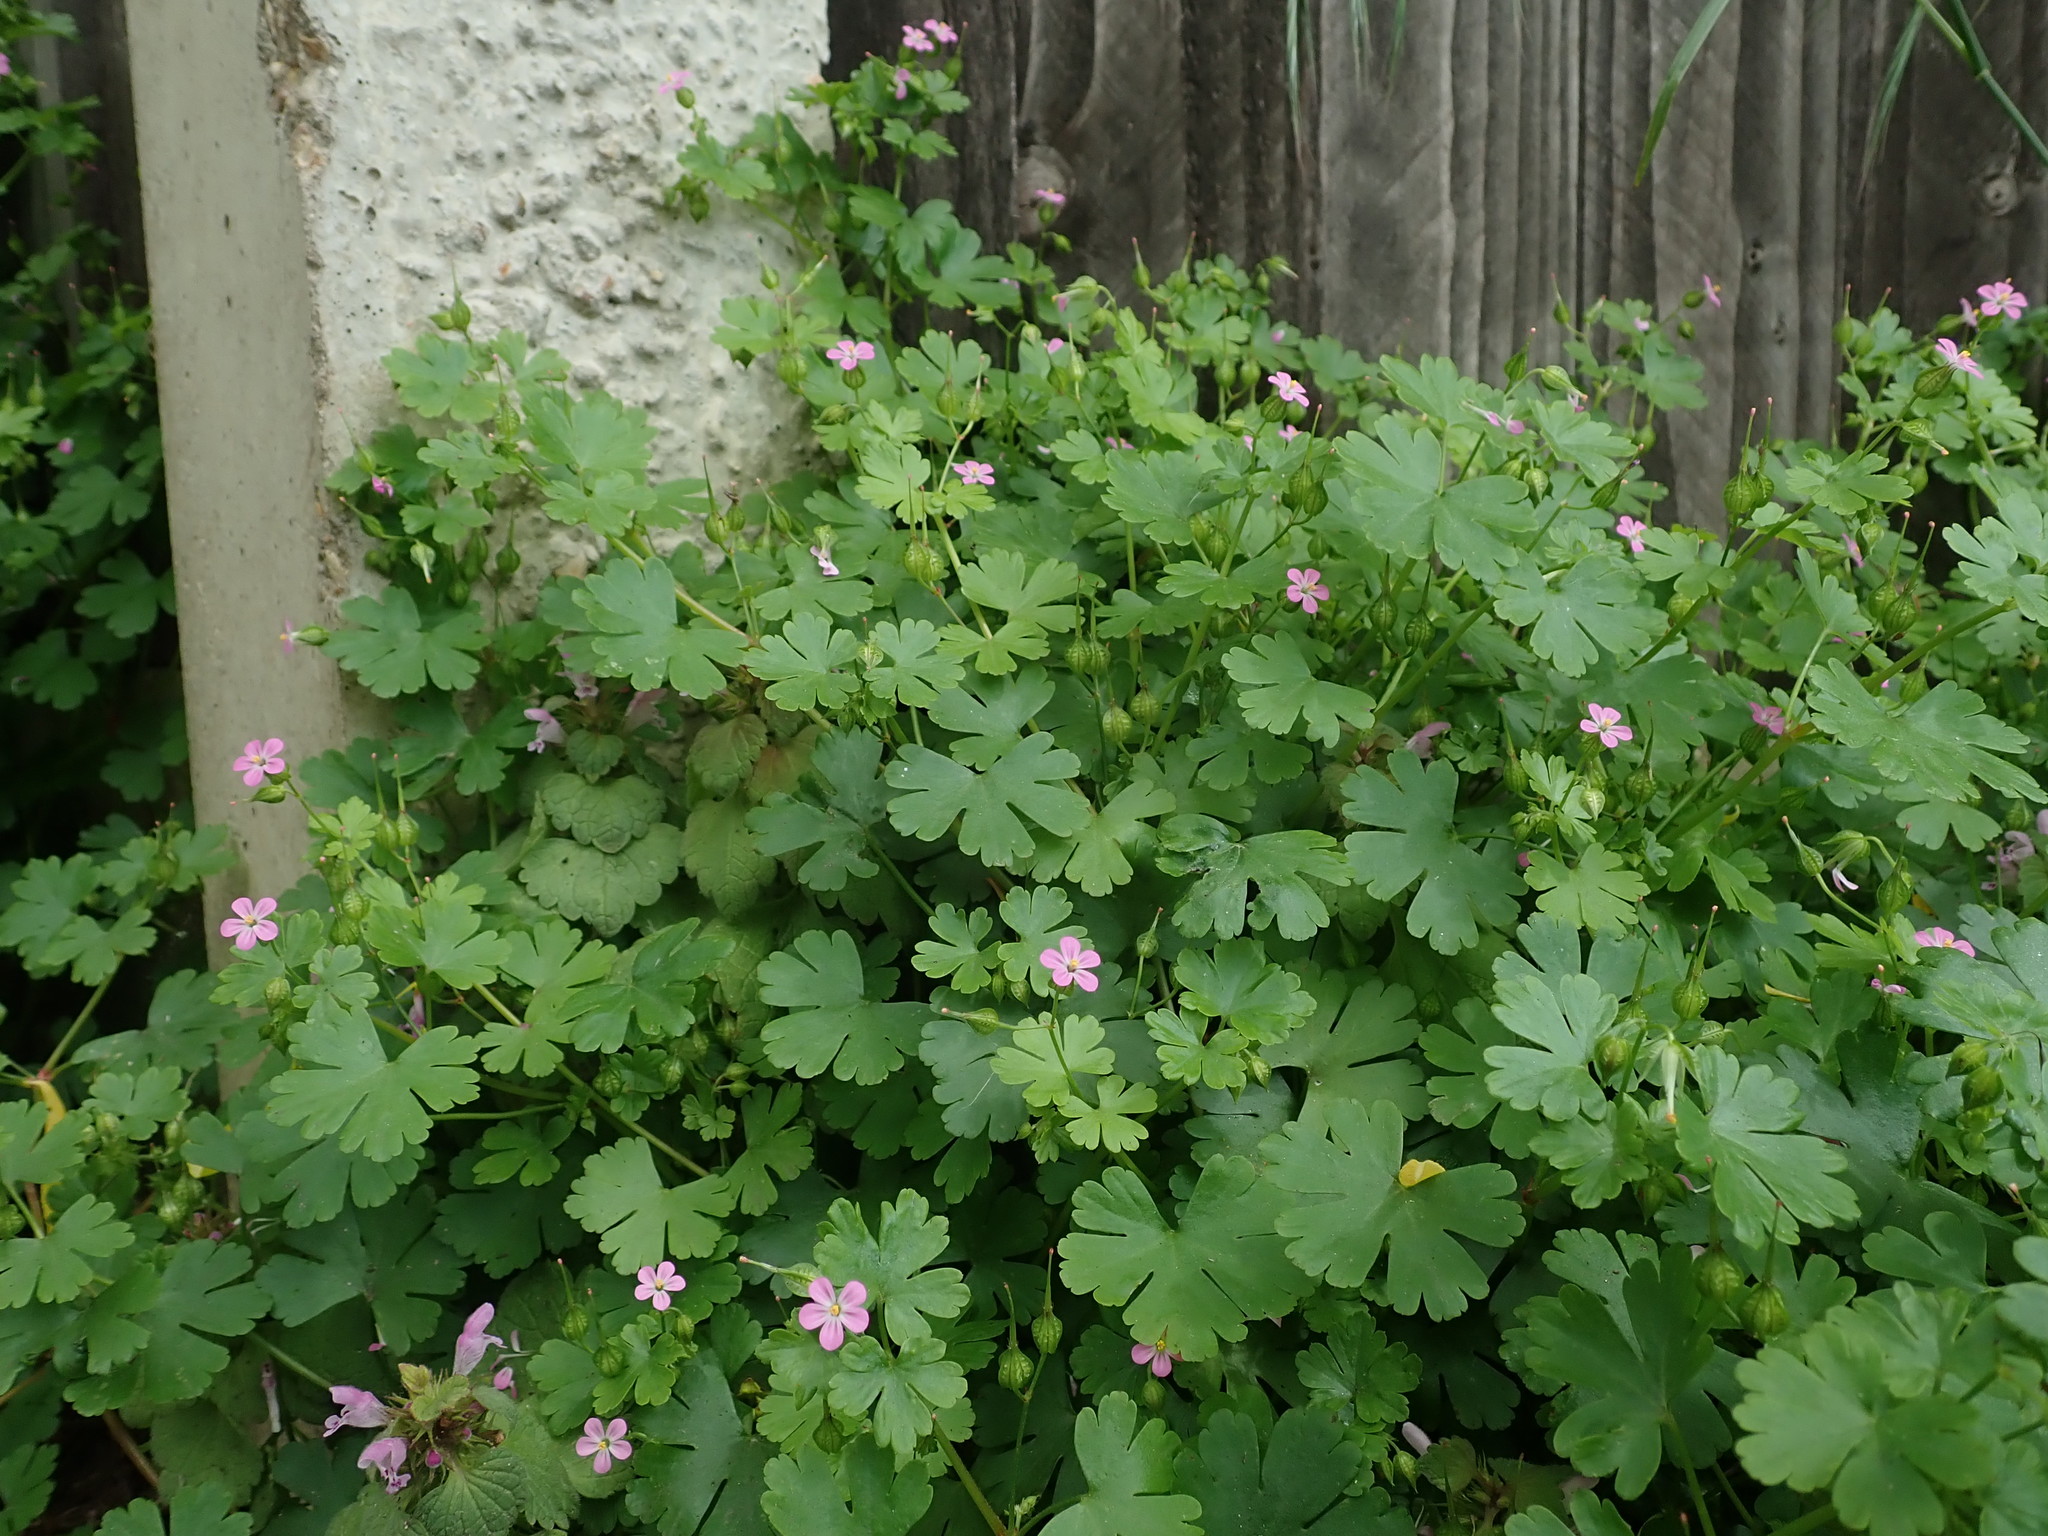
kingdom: Plantae
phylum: Tracheophyta
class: Magnoliopsida
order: Geraniales
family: Geraniaceae
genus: Geranium
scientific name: Geranium lucidum
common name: Shining crane's-bill
